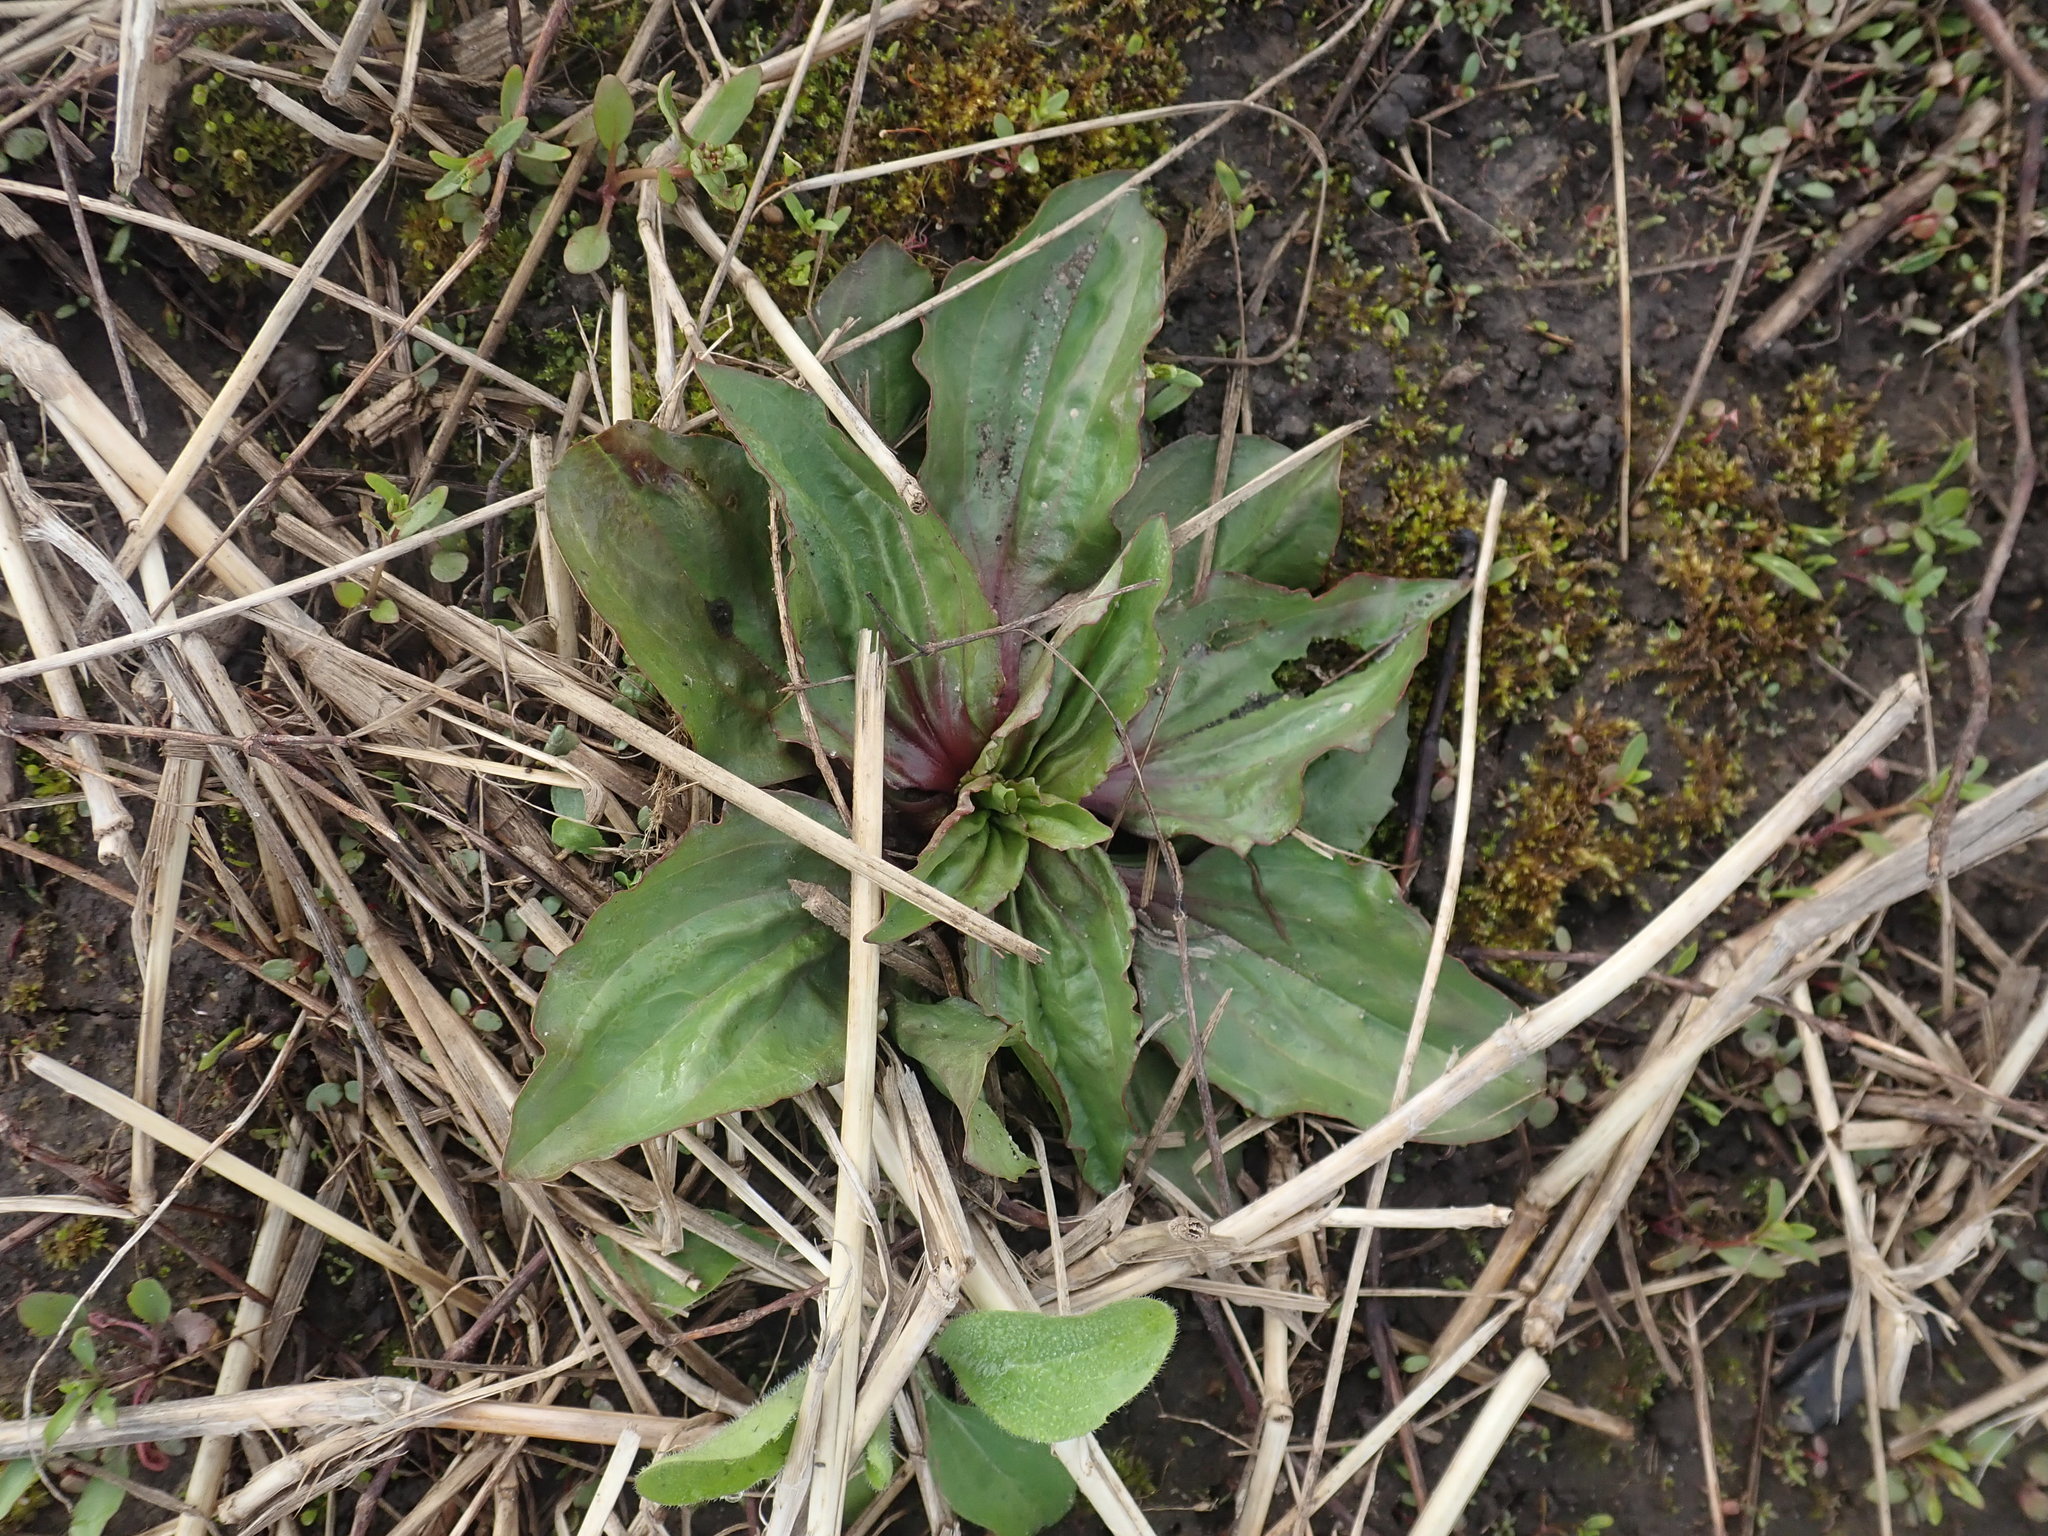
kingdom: Plantae
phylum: Tracheophyta
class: Magnoliopsida
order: Lamiales
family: Plantaginaceae
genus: Plantago
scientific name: Plantago rugelii
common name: American plantain
